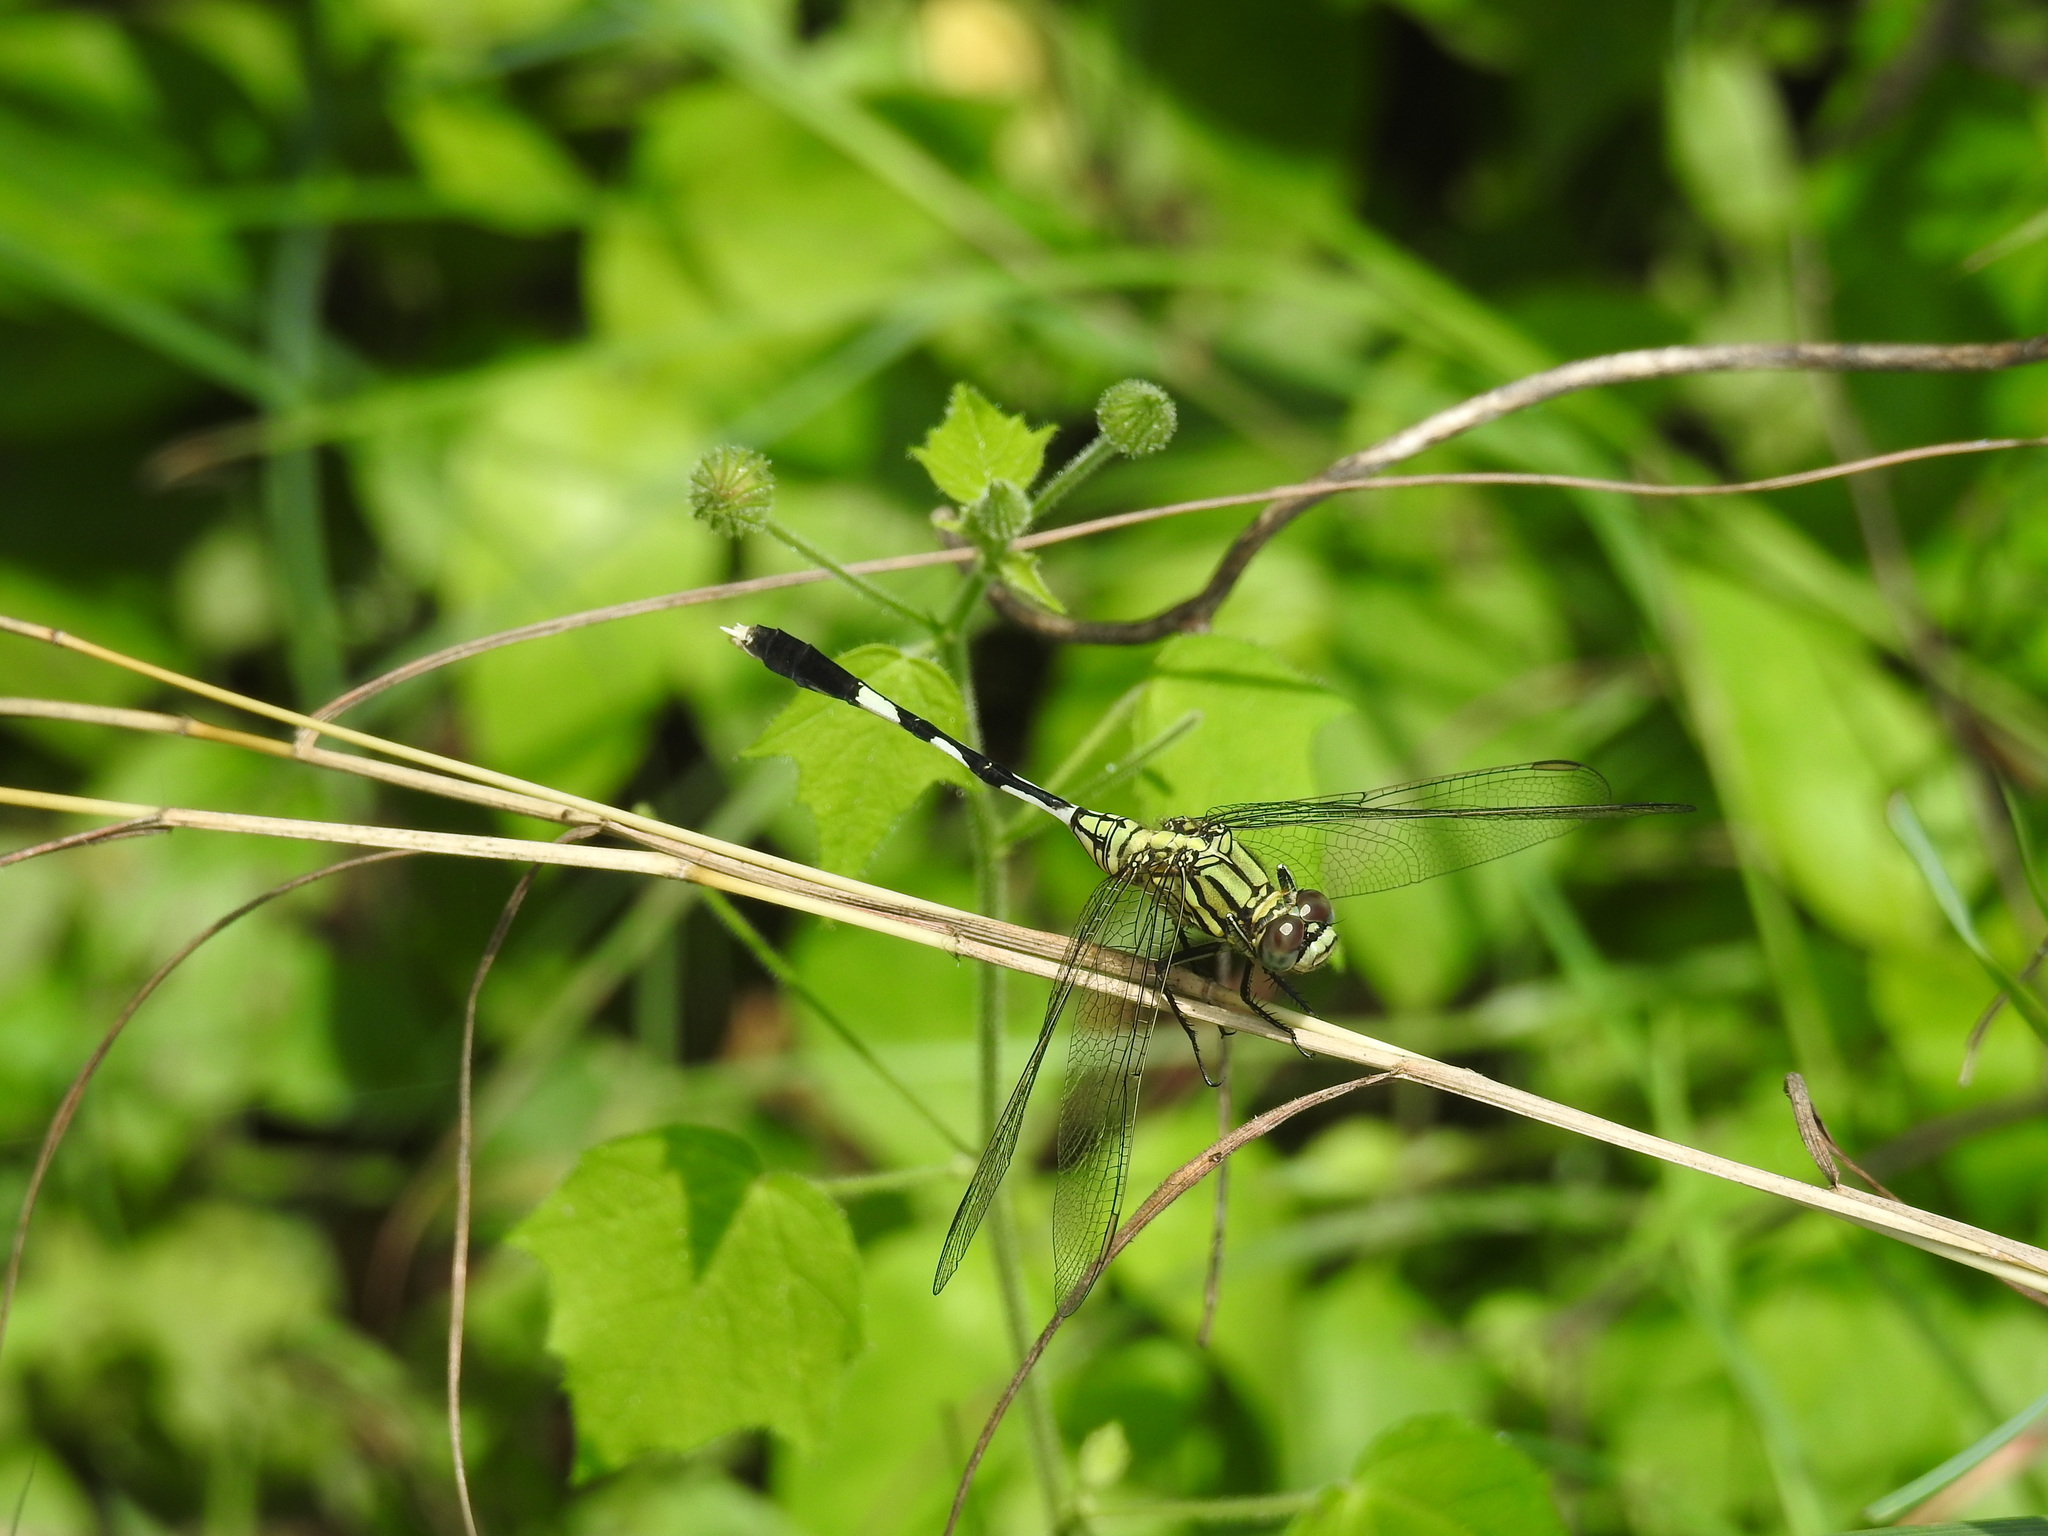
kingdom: Animalia
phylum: Arthropoda
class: Insecta
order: Odonata
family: Libellulidae
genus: Orthetrum
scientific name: Orthetrum sabina
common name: Slender skimmer
